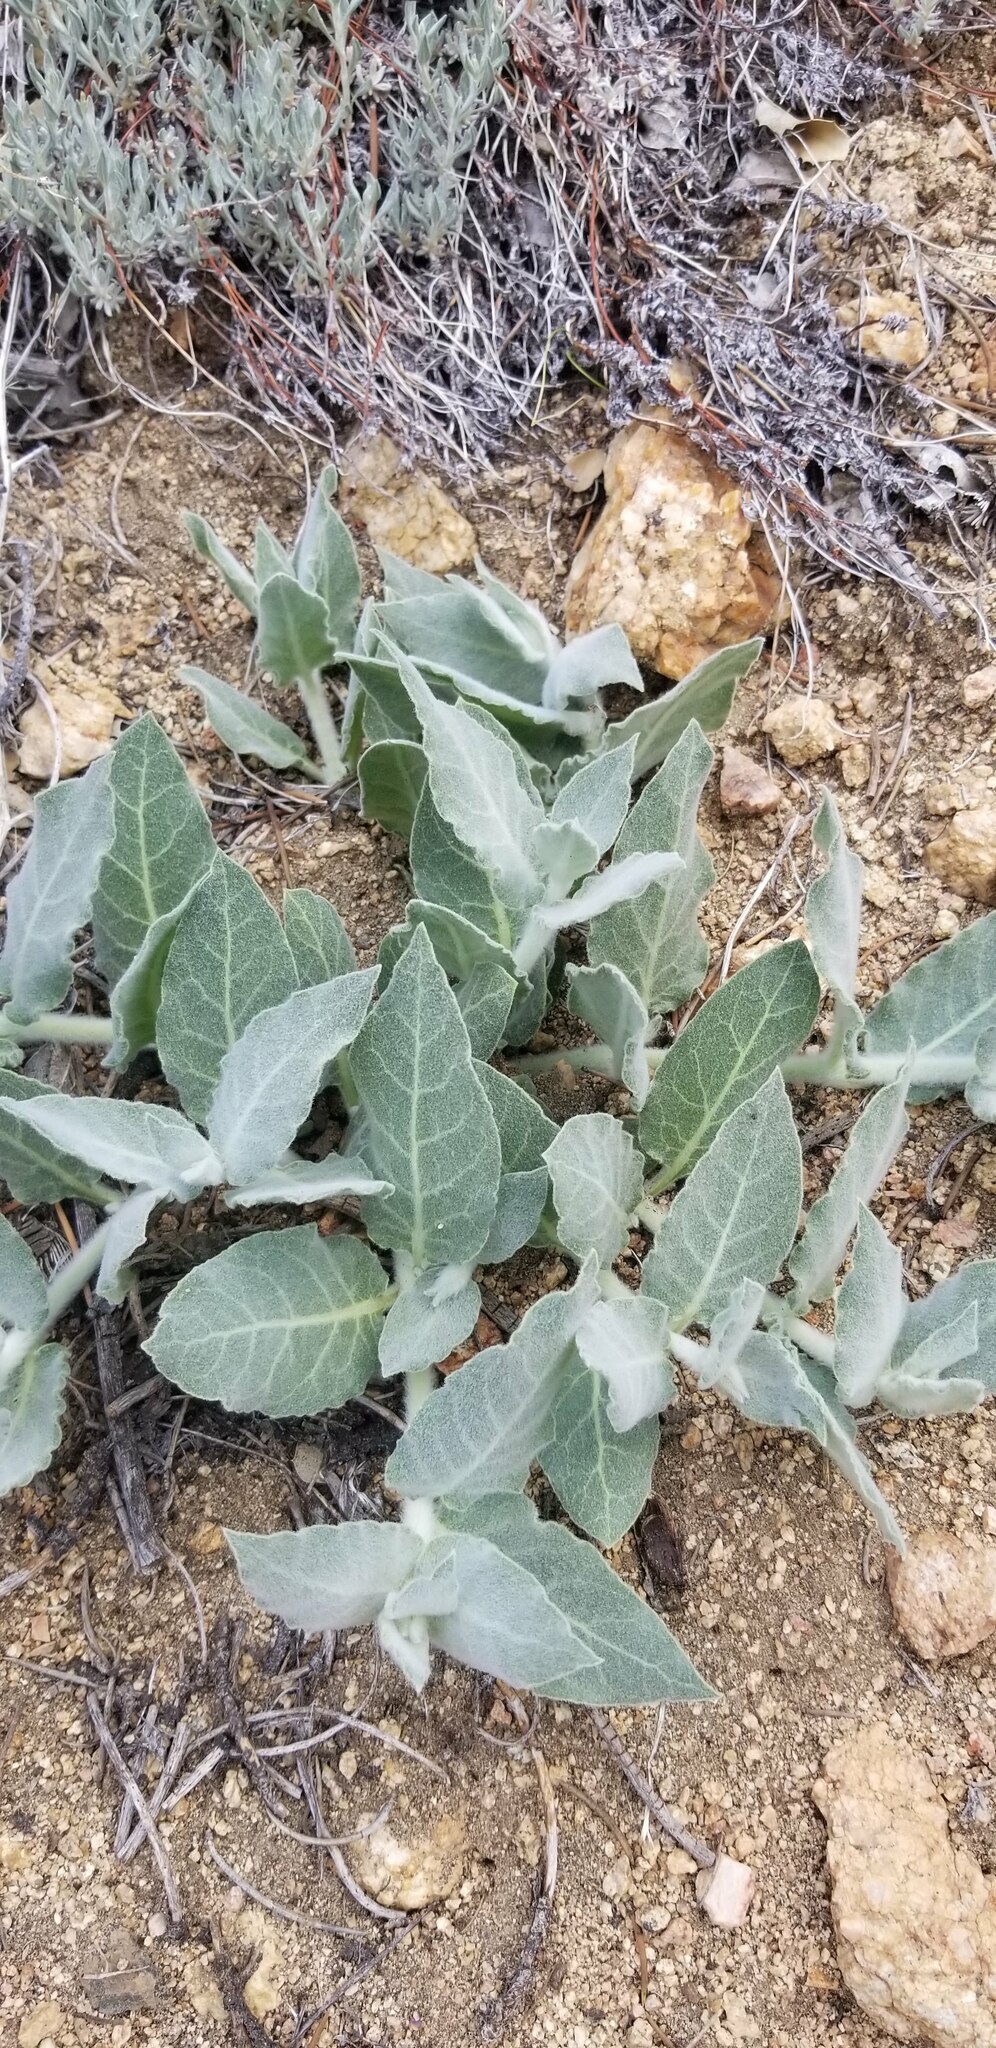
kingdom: Plantae
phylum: Tracheophyta
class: Magnoliopsida
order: Gentianales
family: Apocynaceae
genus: Asclepias
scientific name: Asclepias californica
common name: California milkweed
